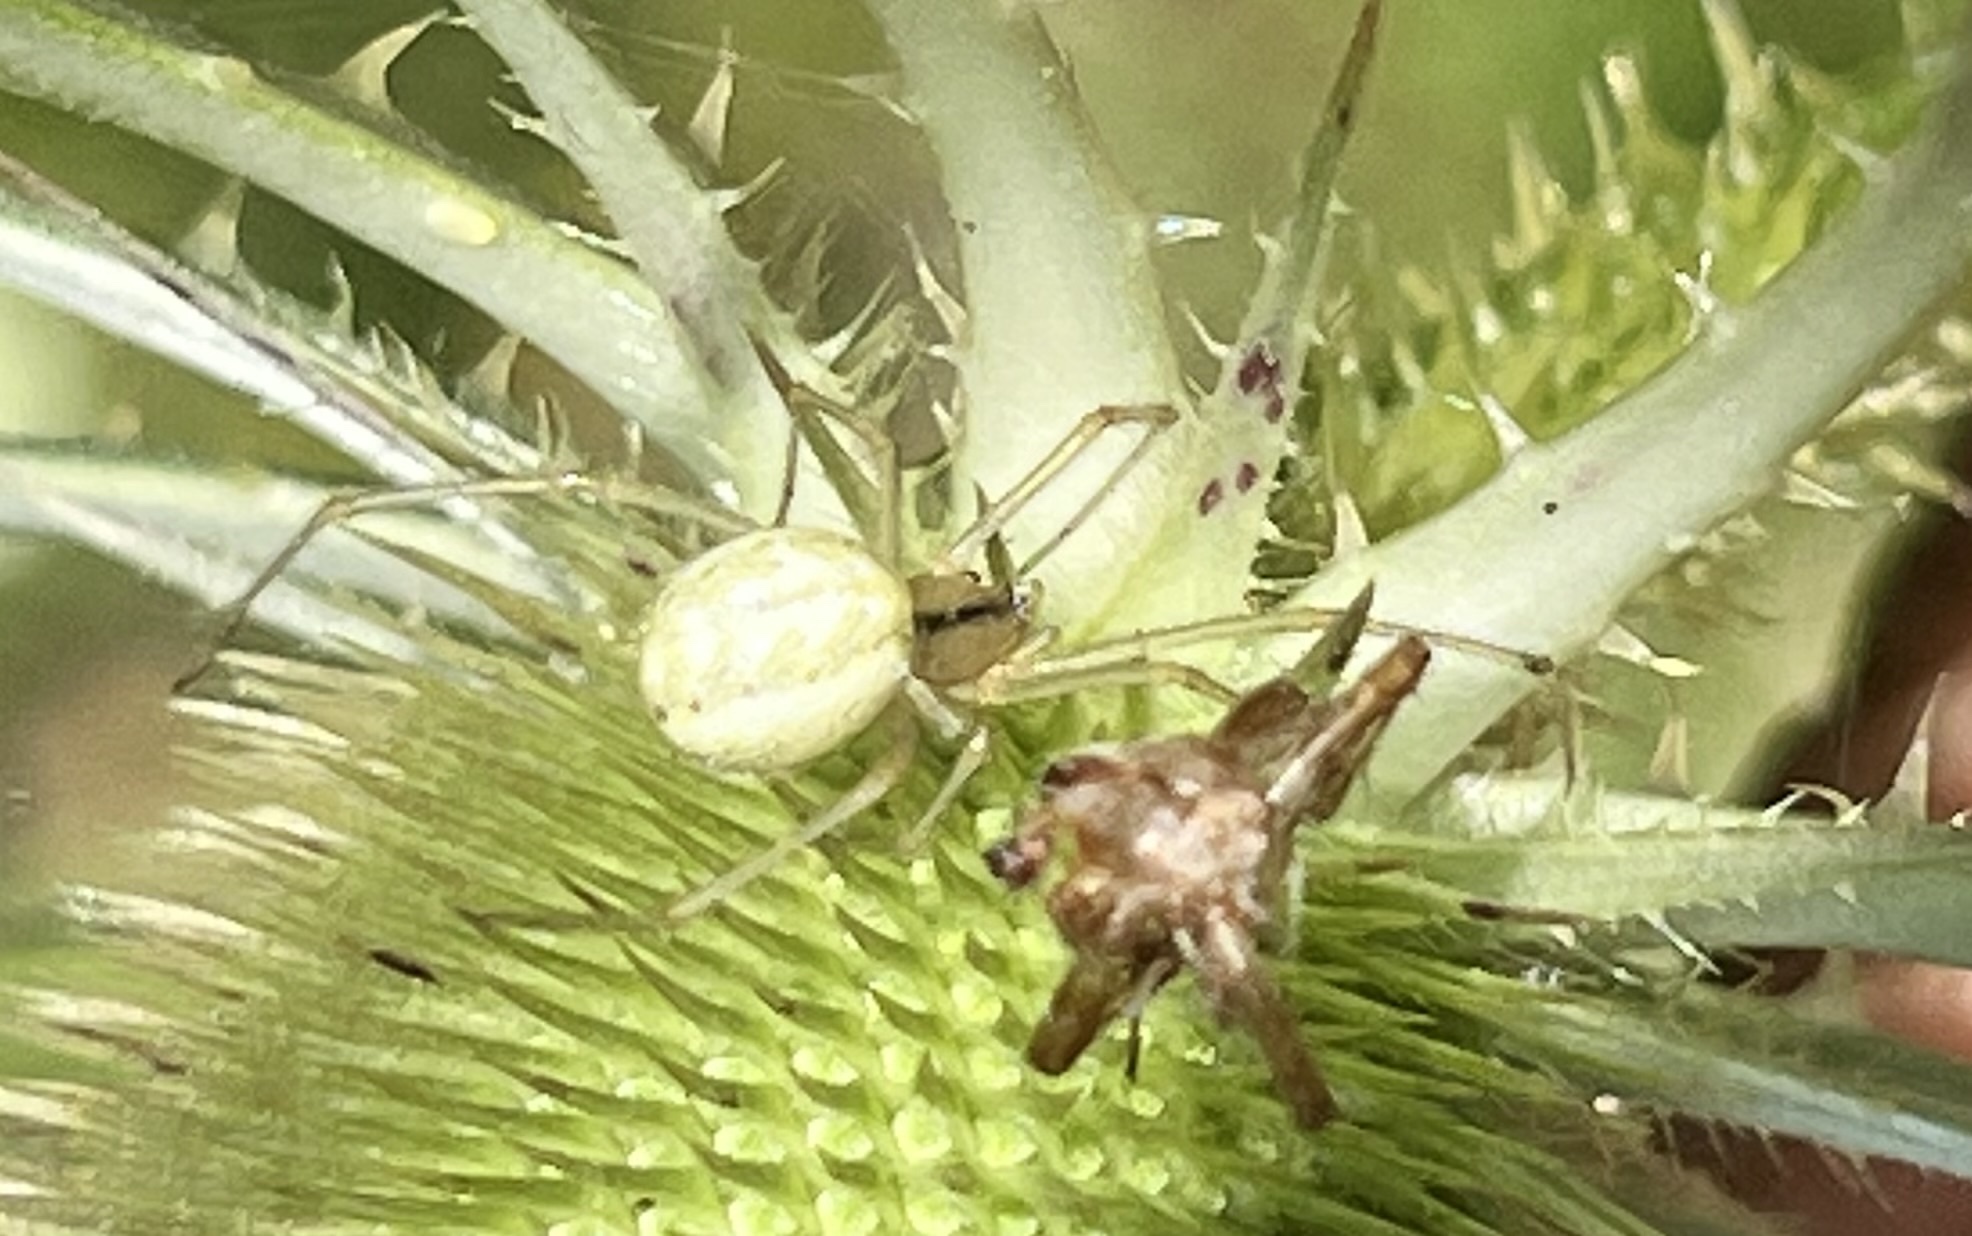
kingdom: Animalia
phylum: Arthropoda
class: Arachnida
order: Araneae
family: Theridiidae
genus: Enoplognatha
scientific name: Enoplognatha ovata
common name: Common candy-striped spider
